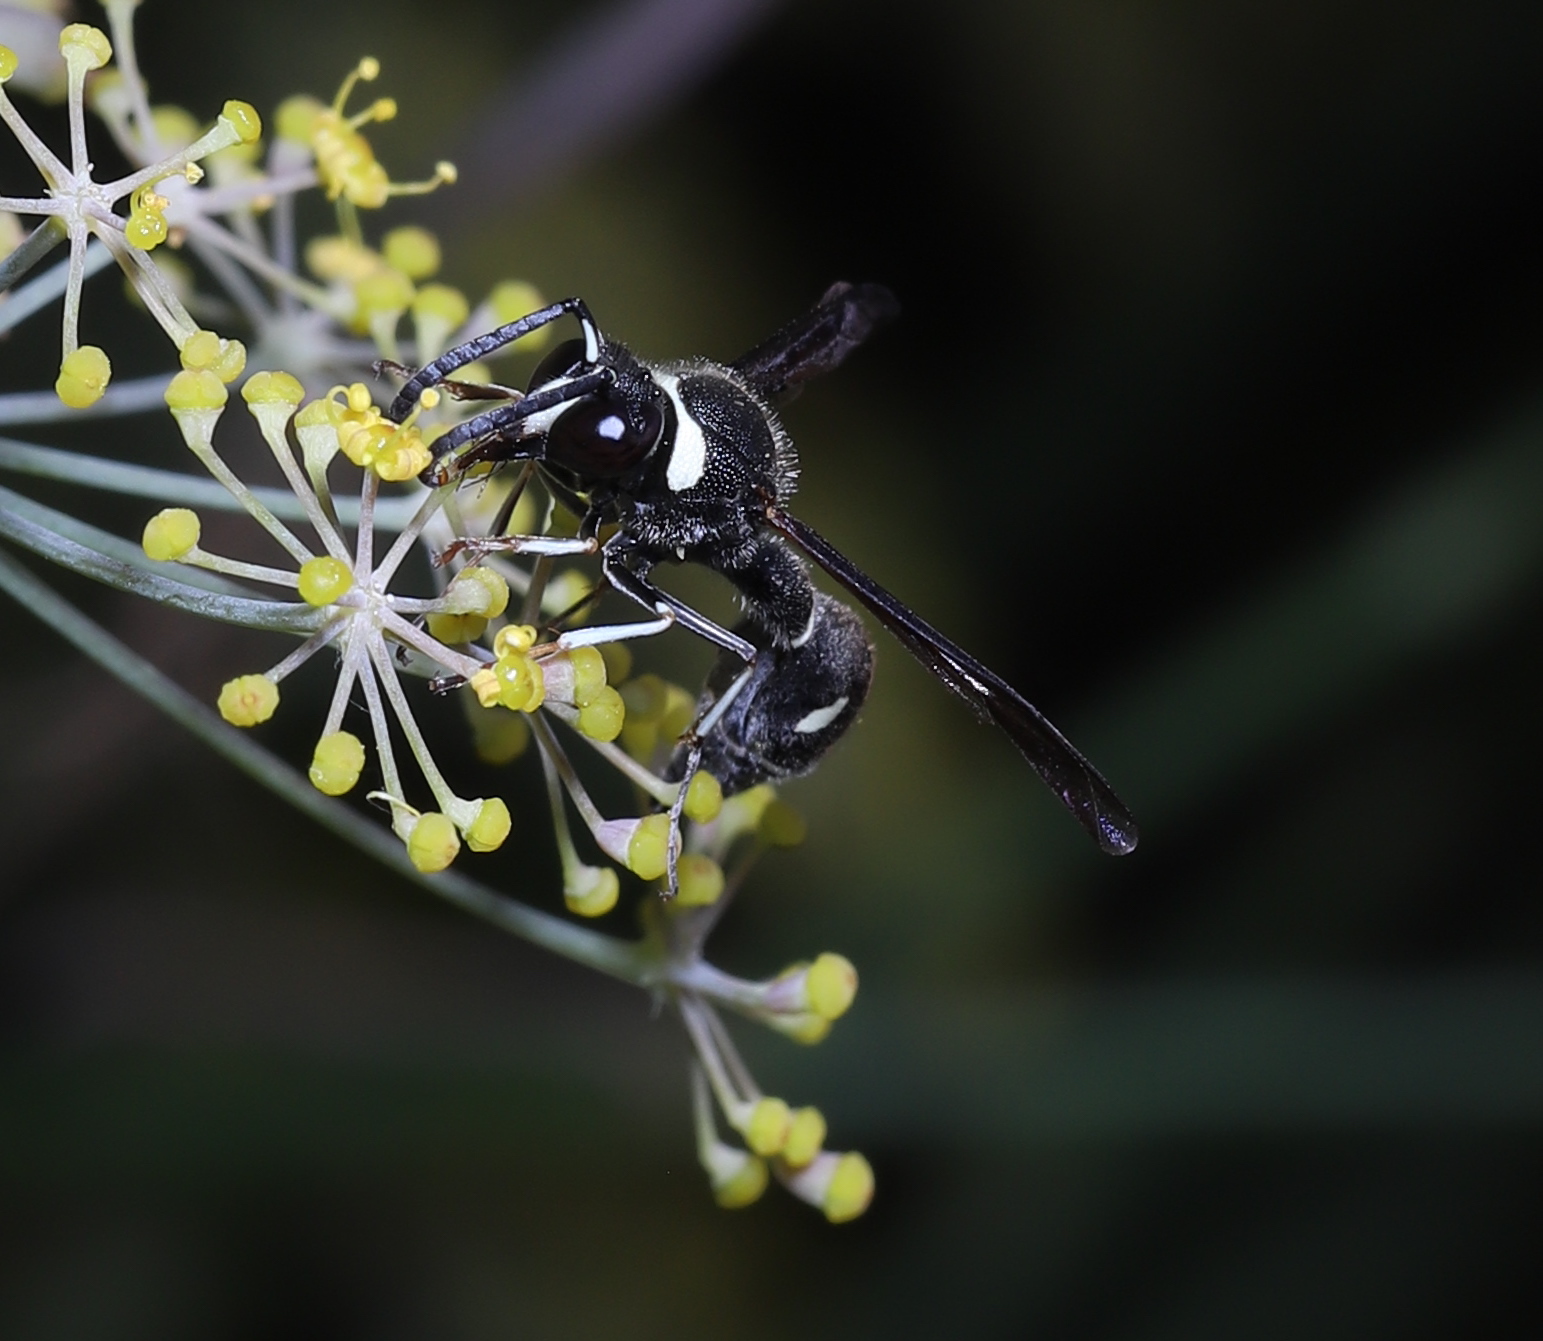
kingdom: Animalia
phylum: Arthropoda
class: Insecta
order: Hymenoptera
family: Vespidae
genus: Eumenes
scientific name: Eumenes fraternus
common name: Fraternal potter wasp
